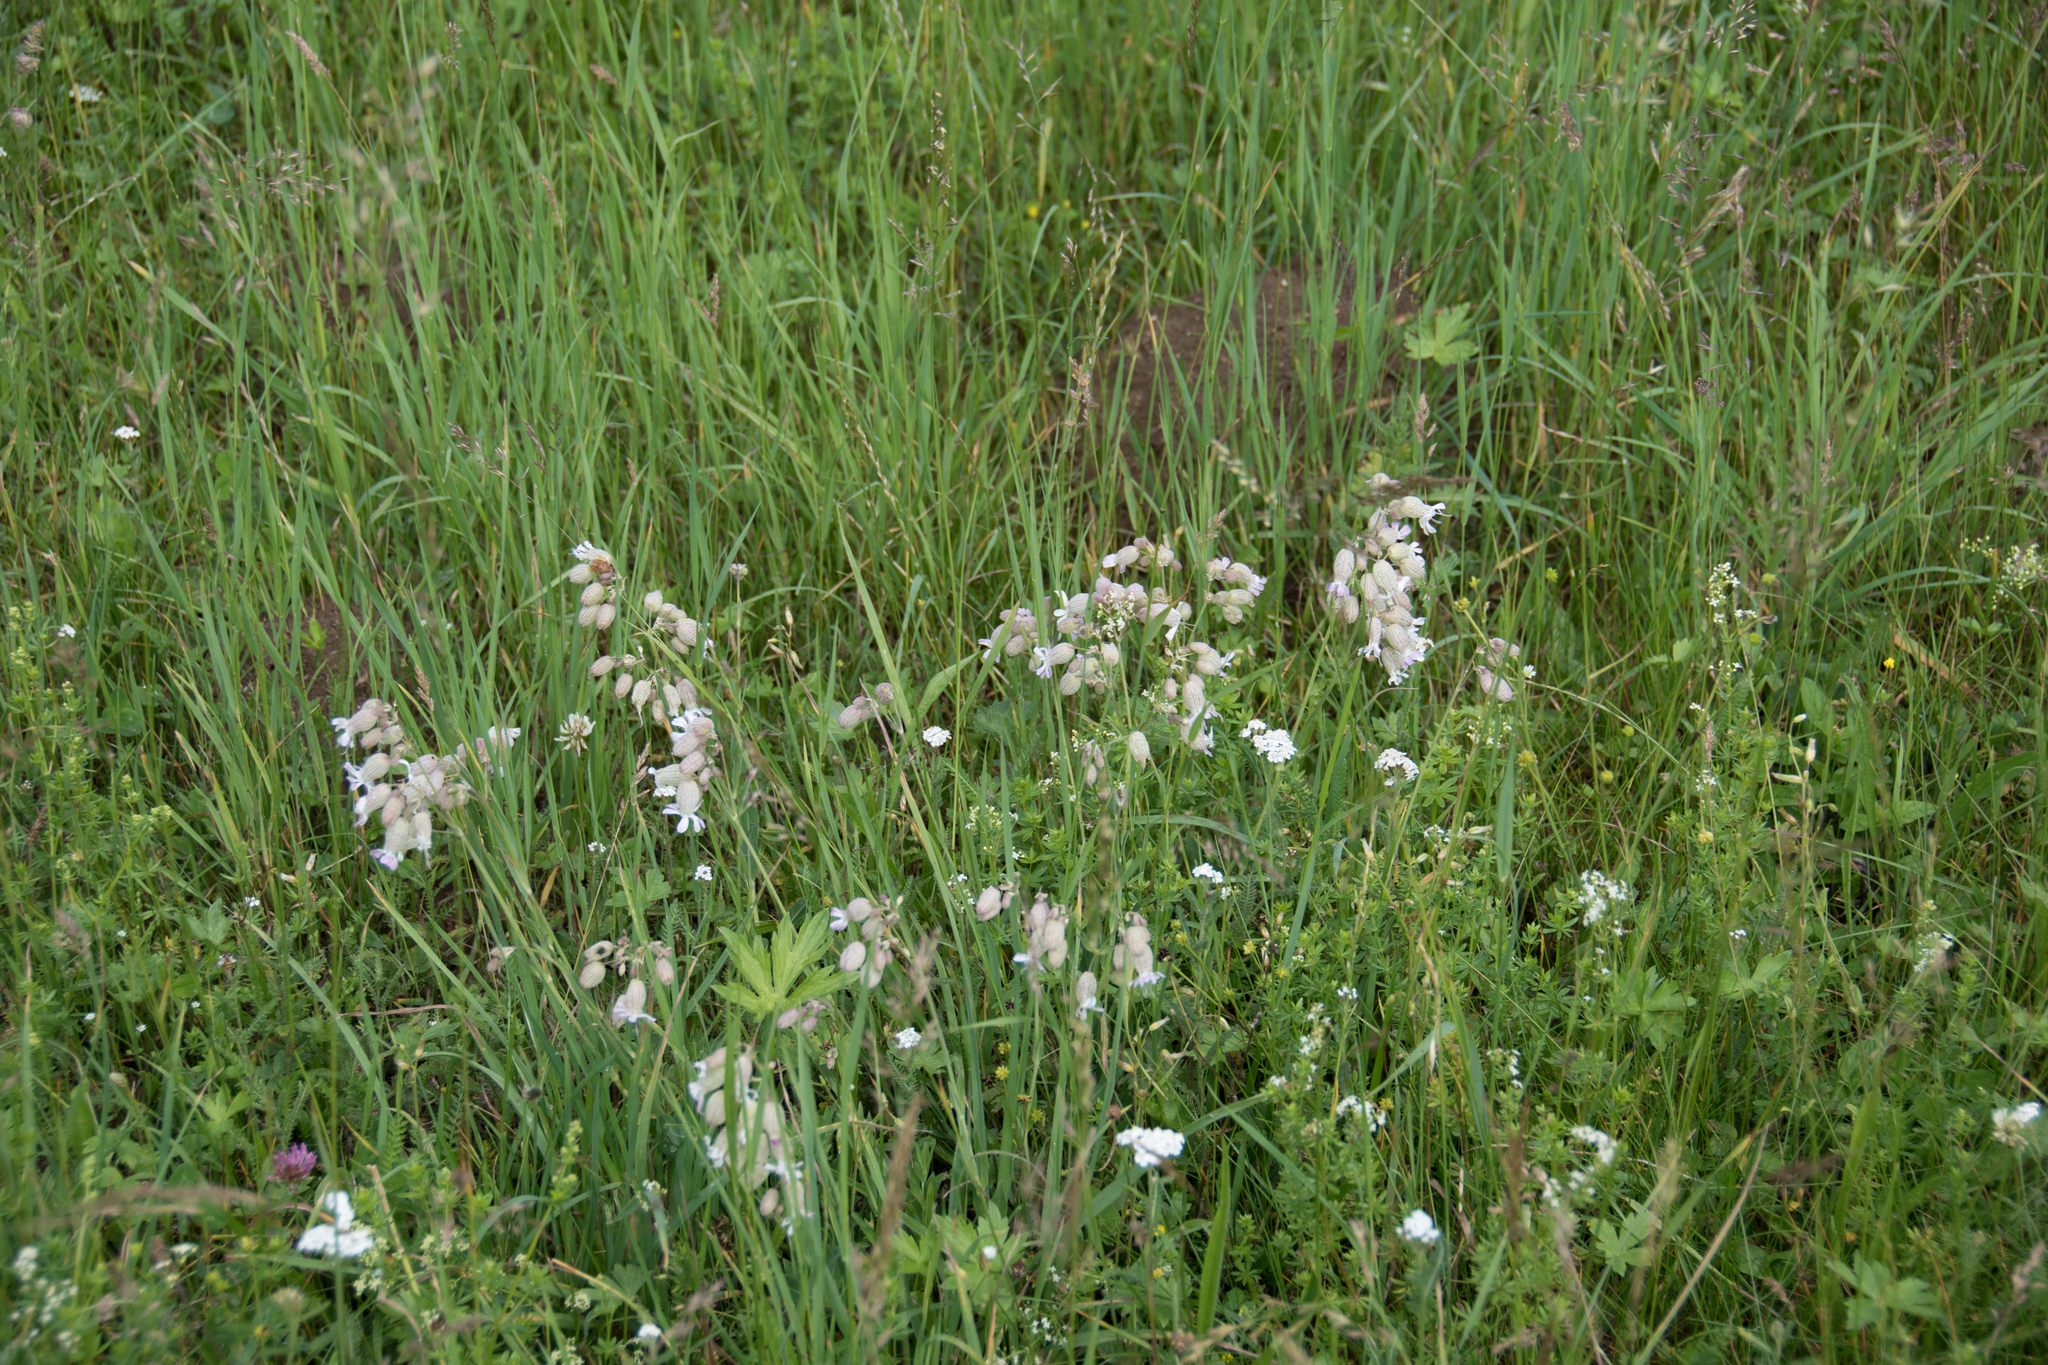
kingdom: Plantae
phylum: Tracheophyta
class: Magnoliopsida
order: Caryophyllales
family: Caryophyllaceae
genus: Silene
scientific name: Silene vulgaris
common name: Bladder campion
